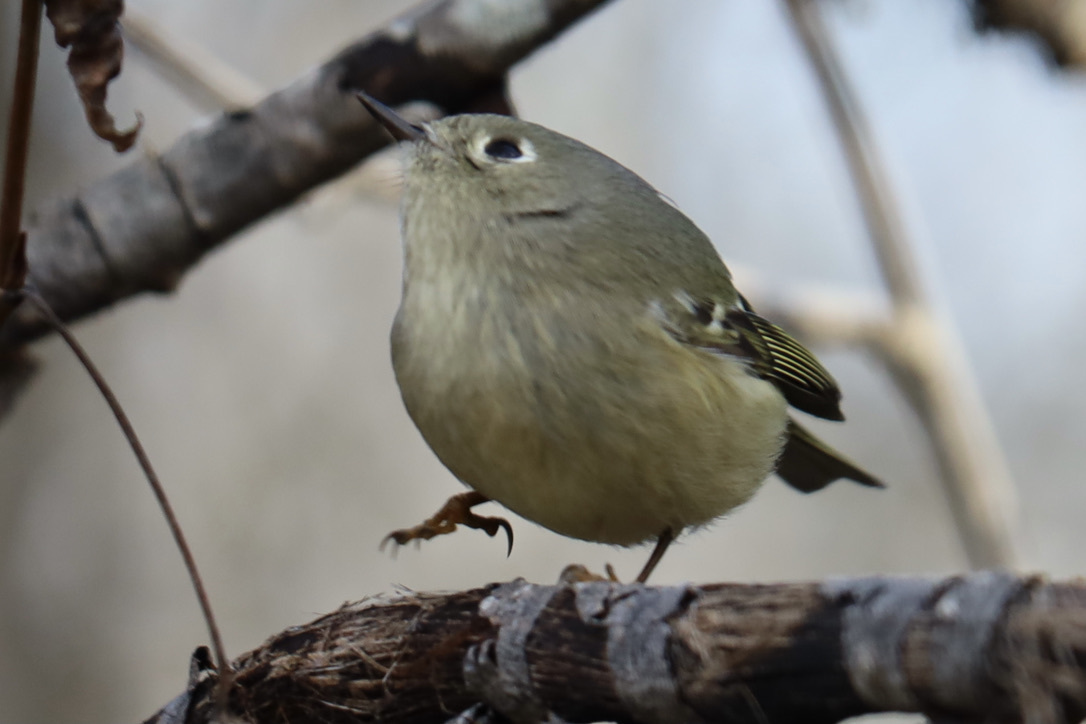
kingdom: Animalia
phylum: Chordata
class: Aves
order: Passeriformes
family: Regulidae
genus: Regulus
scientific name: Regulus calendula
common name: Ruby-crowned kinglet
